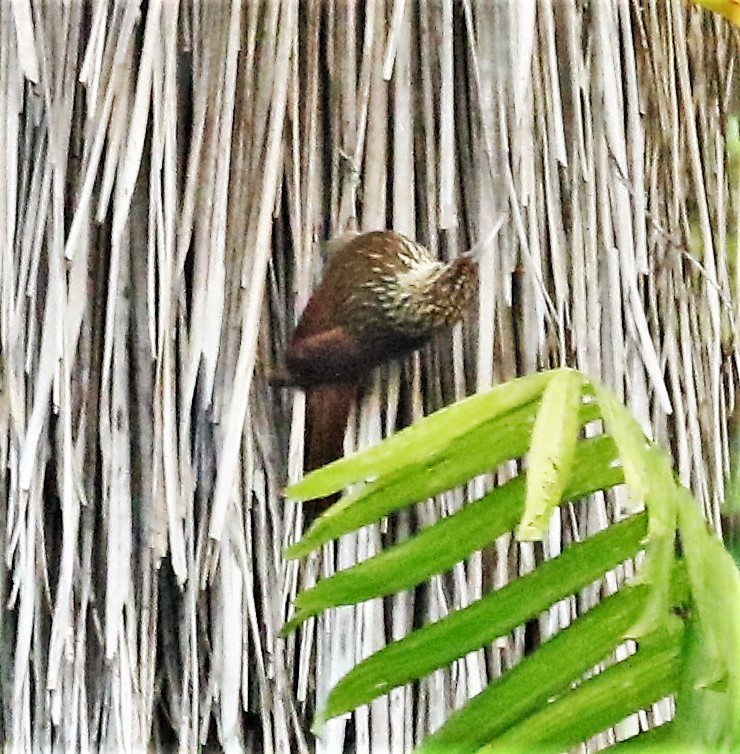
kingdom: Animalia
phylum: Chordata
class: Aves
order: Passeriformes
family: Furnariidae
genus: Lepidocolaptes
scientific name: Lepidocolaptes souleyetii
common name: Streak-headed woodcreeper
